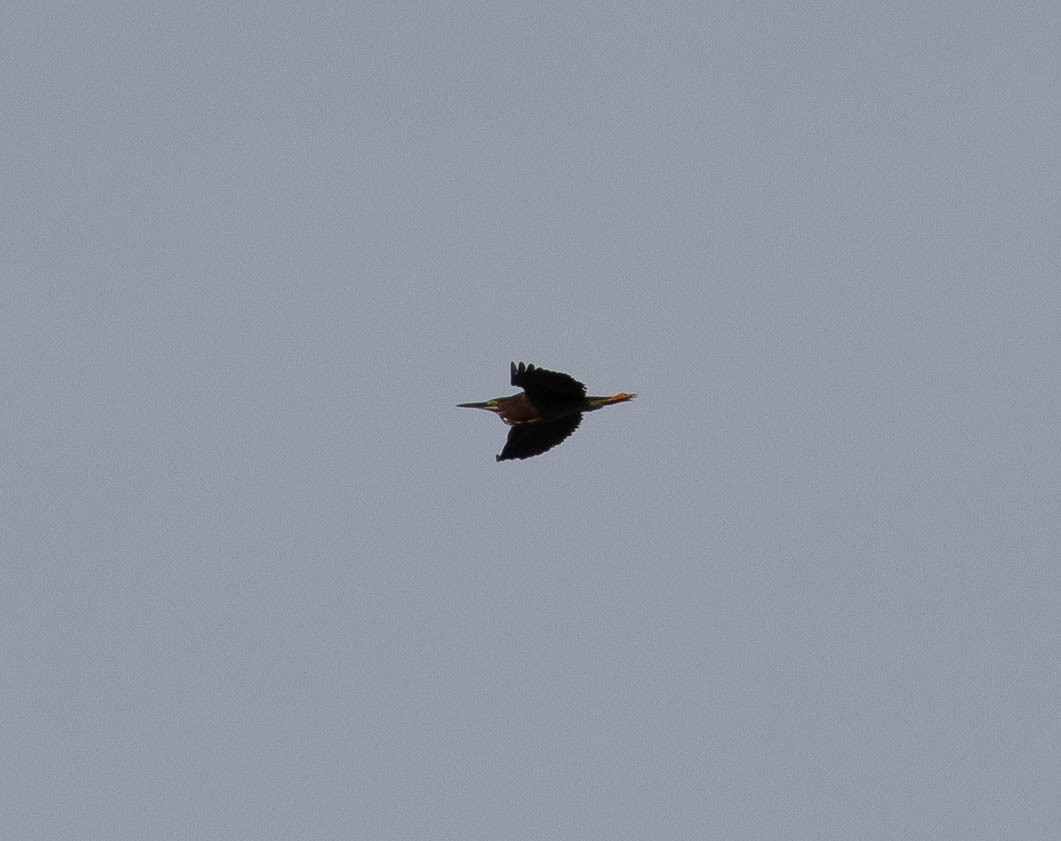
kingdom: Animalia
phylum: Chordata
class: Aves
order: Pelecaniformes
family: Ardeidae
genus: Butorides
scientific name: Butorides virescens
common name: Green heron
